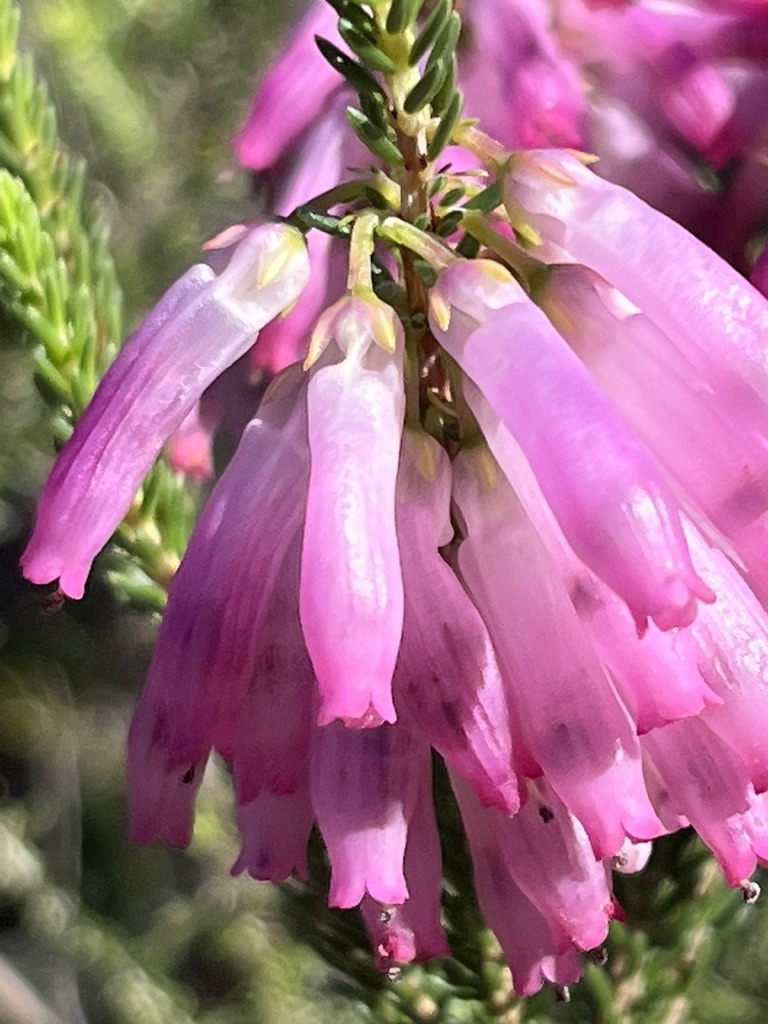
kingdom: Plantae
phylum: Tracheophyta
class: Magnoliopsida
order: Ericales
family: Ericaceae
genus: Erica
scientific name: Erica mammosa
